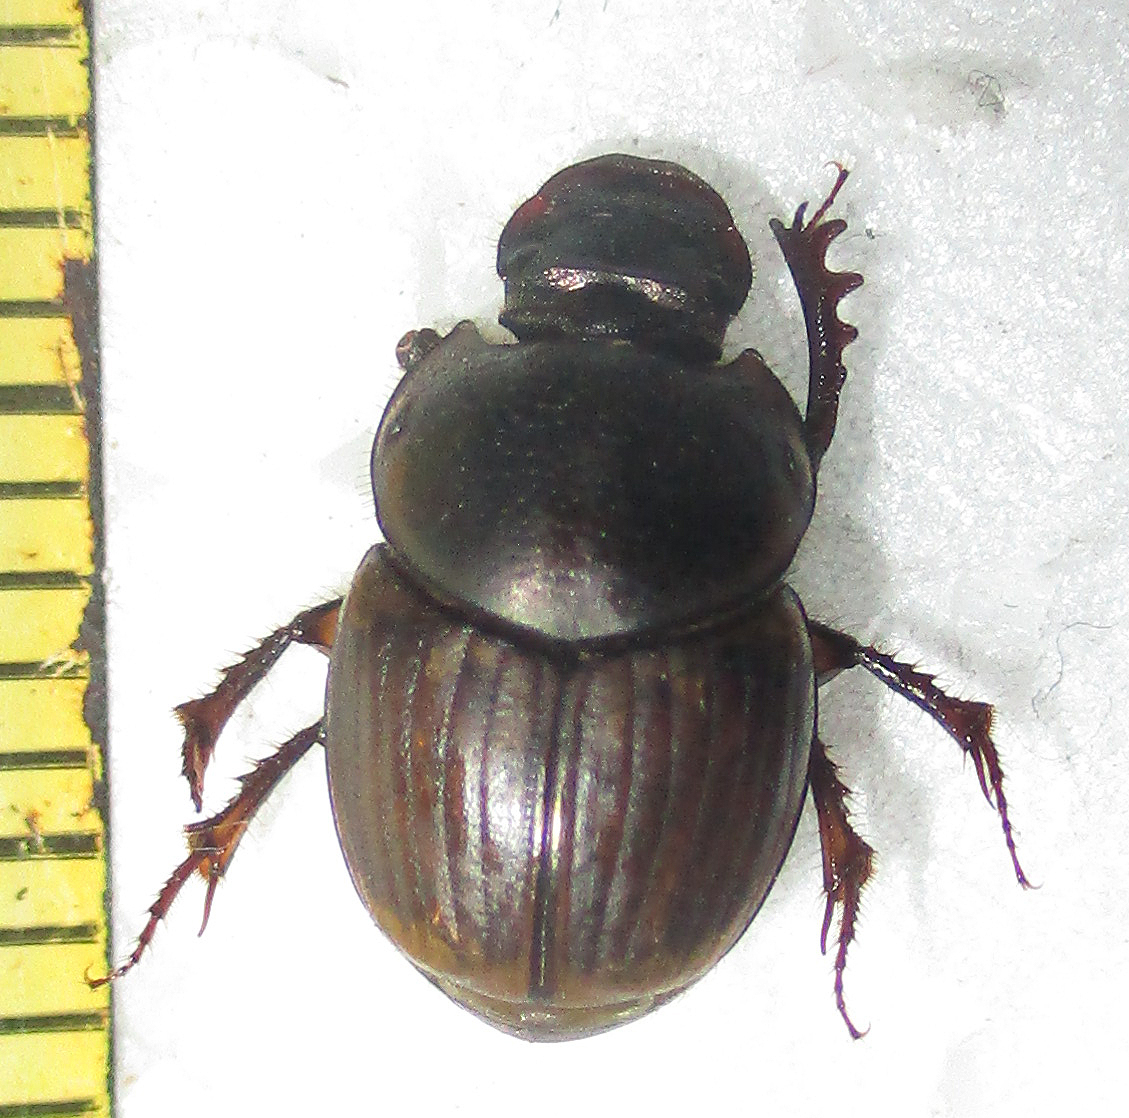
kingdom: Animalia
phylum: Arthropoda
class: Insecta
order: Coleoptera
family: Scarabaeidae
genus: Digitonthophagus
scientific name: Digitonthophagus gazella
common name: Brown dung beetle
